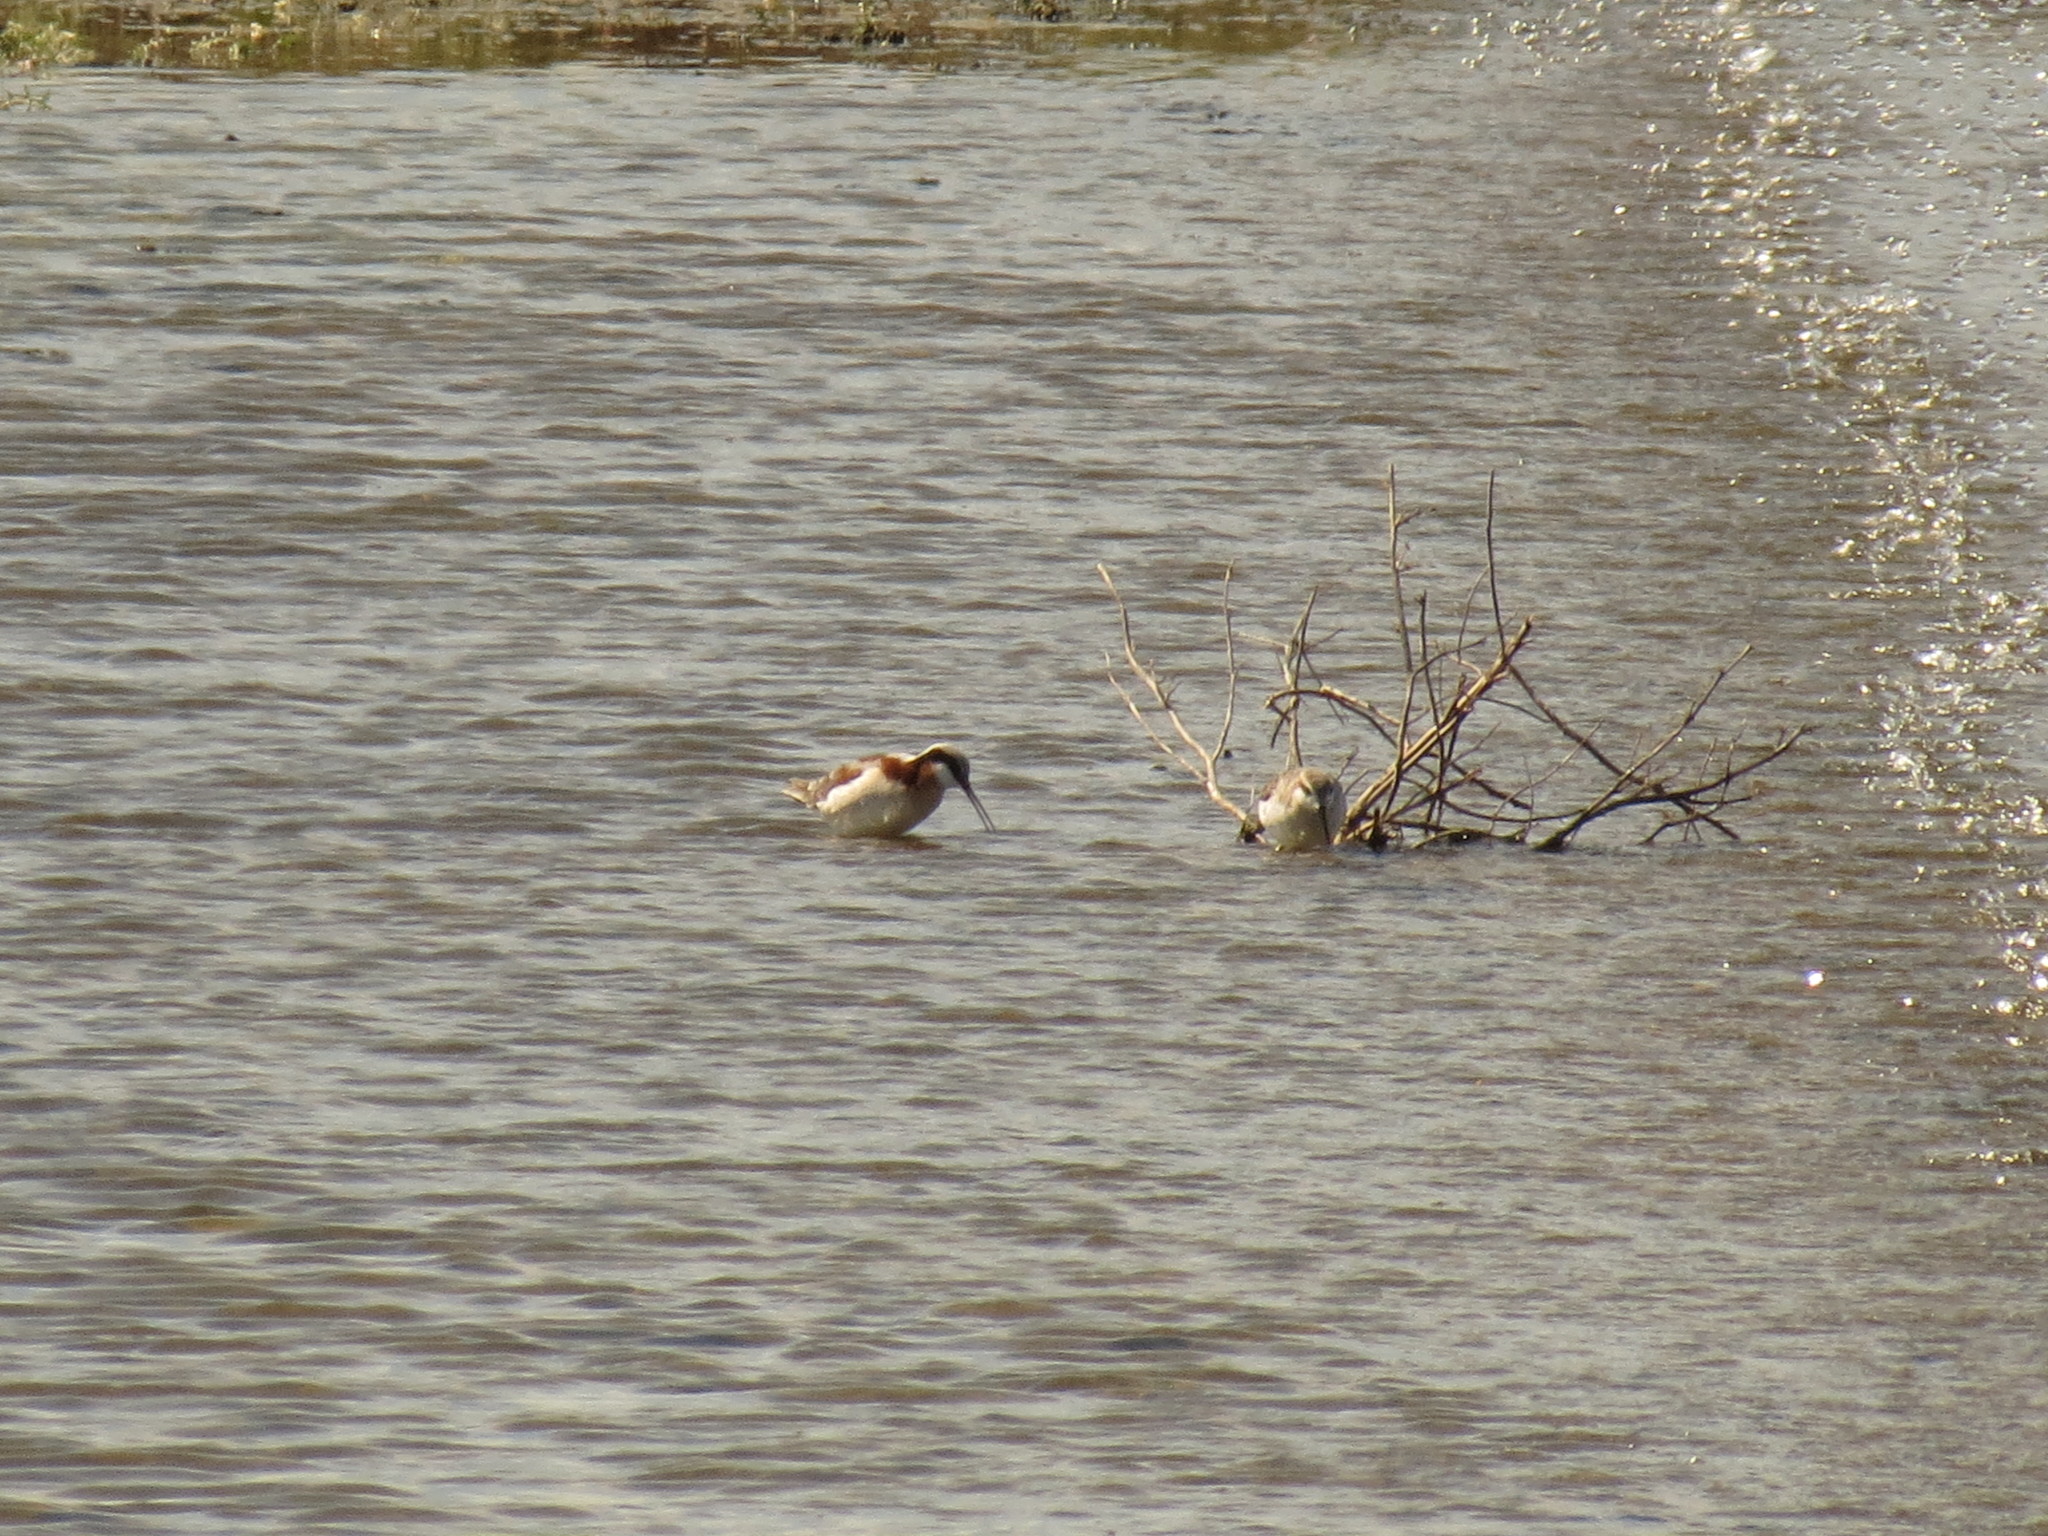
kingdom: Animalia
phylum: Chordata
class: Aves
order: Charadriiformes
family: Scolopacidae
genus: Phalaropus
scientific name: Phalaropus tricolor
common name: Wilson's phalarope
